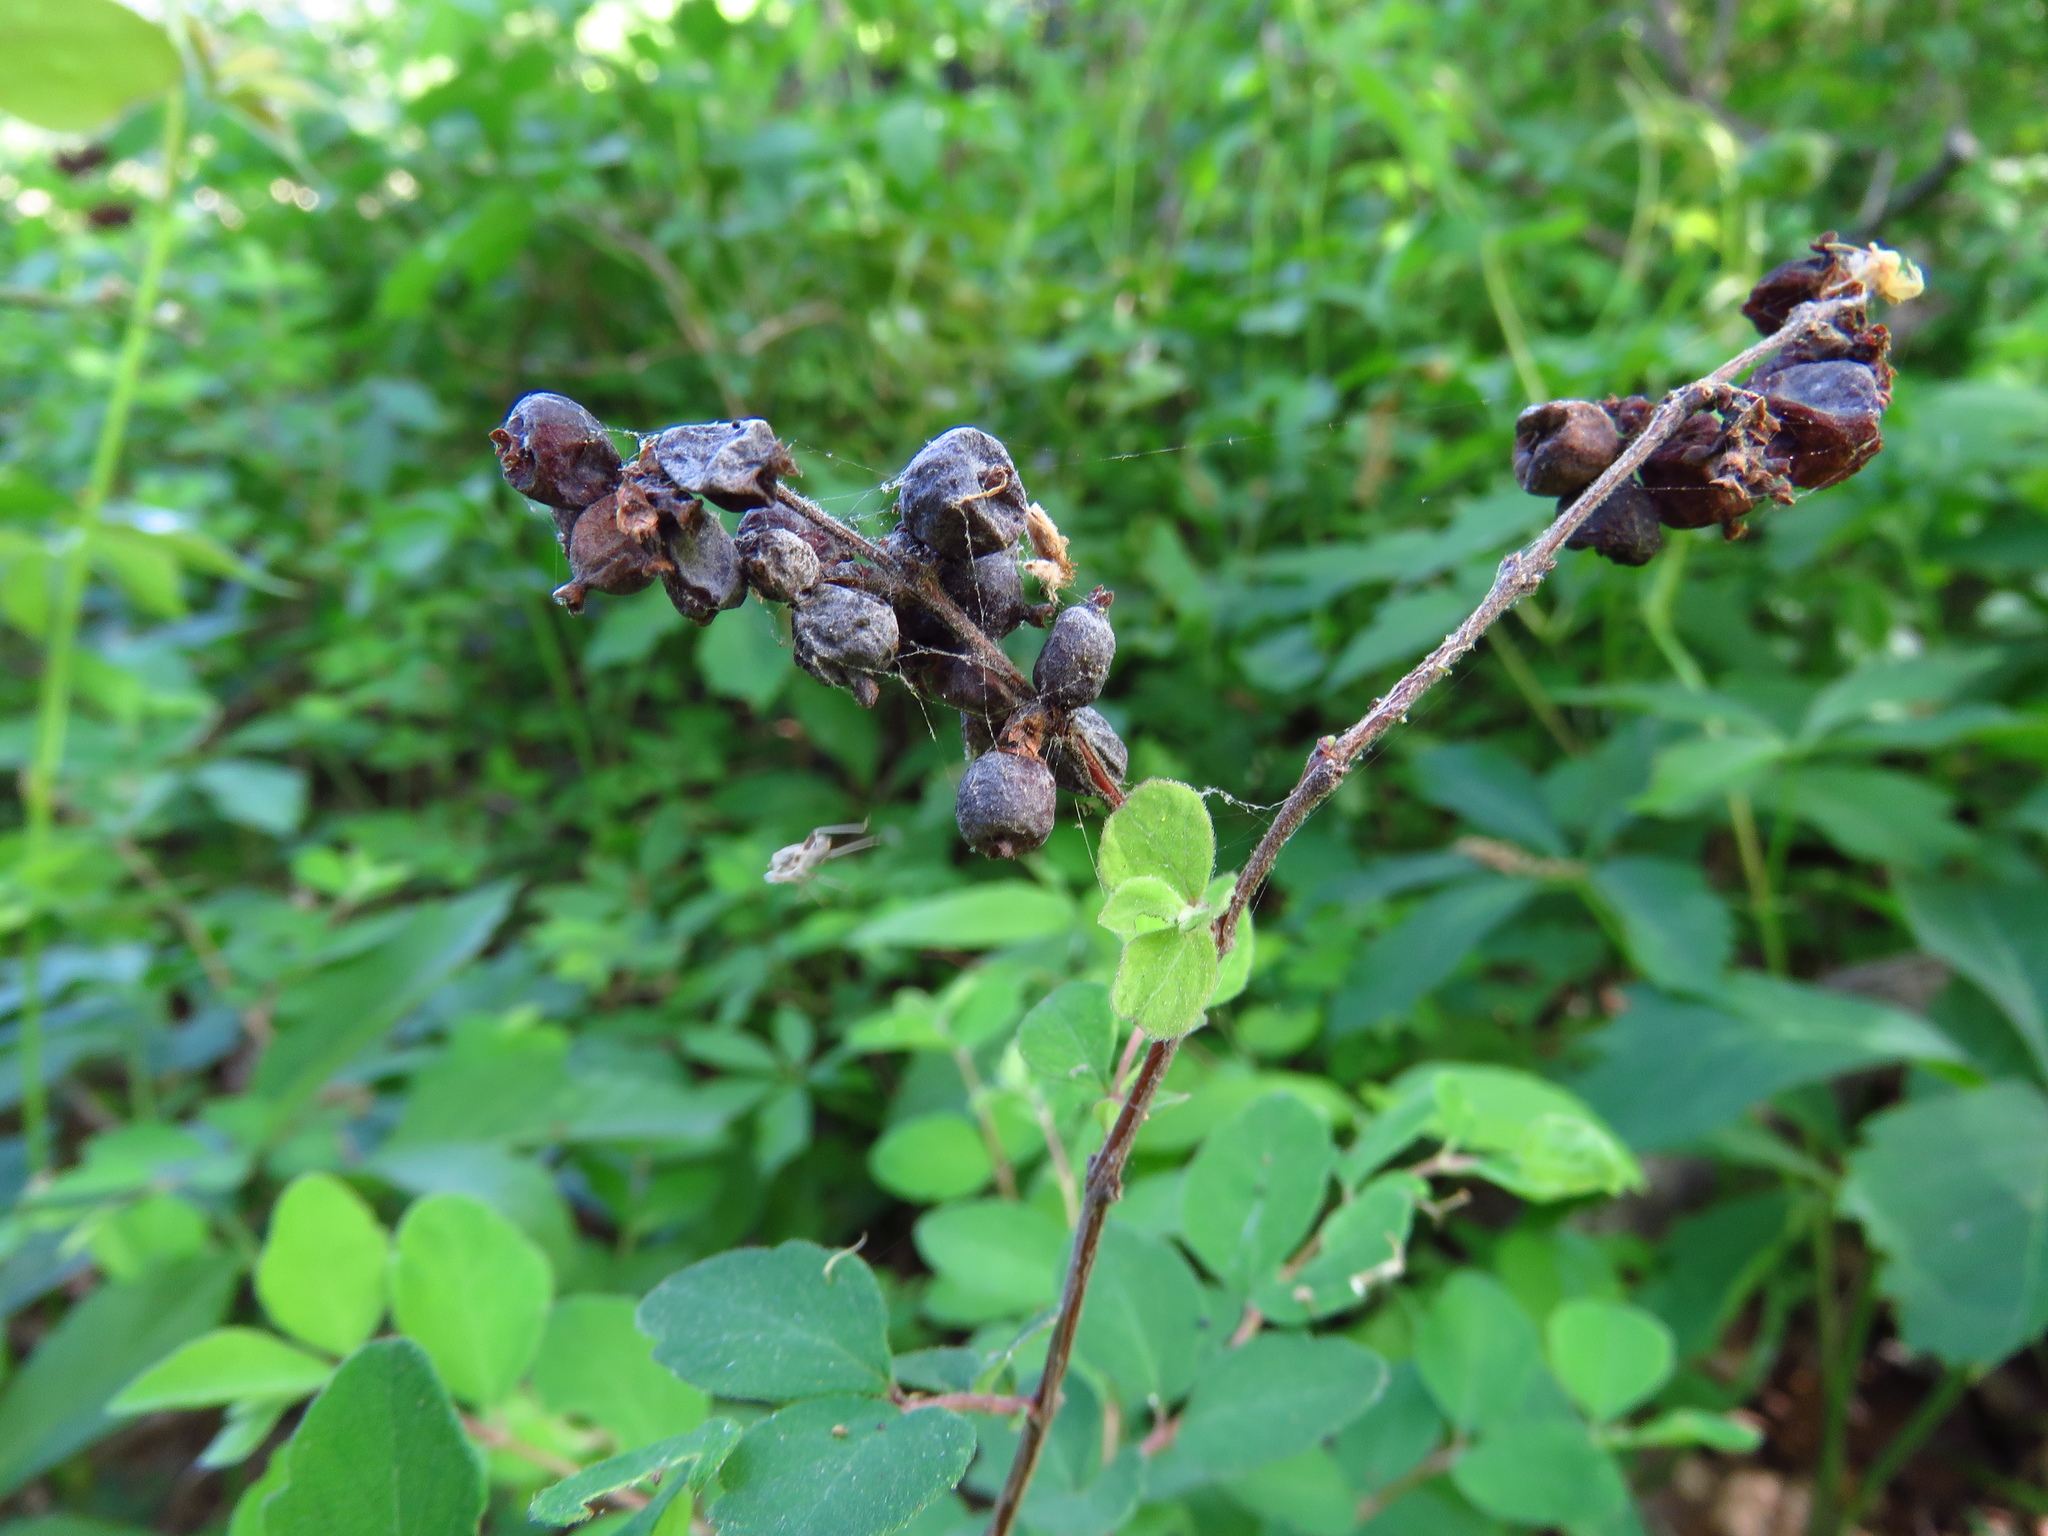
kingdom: Plantae
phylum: Tracheophyta
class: Magnoliopsida
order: Dipsacales
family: Caprifoliaceae
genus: Symphoricarpos
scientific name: Symphoricarpos orbiculatus
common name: Coralberry
